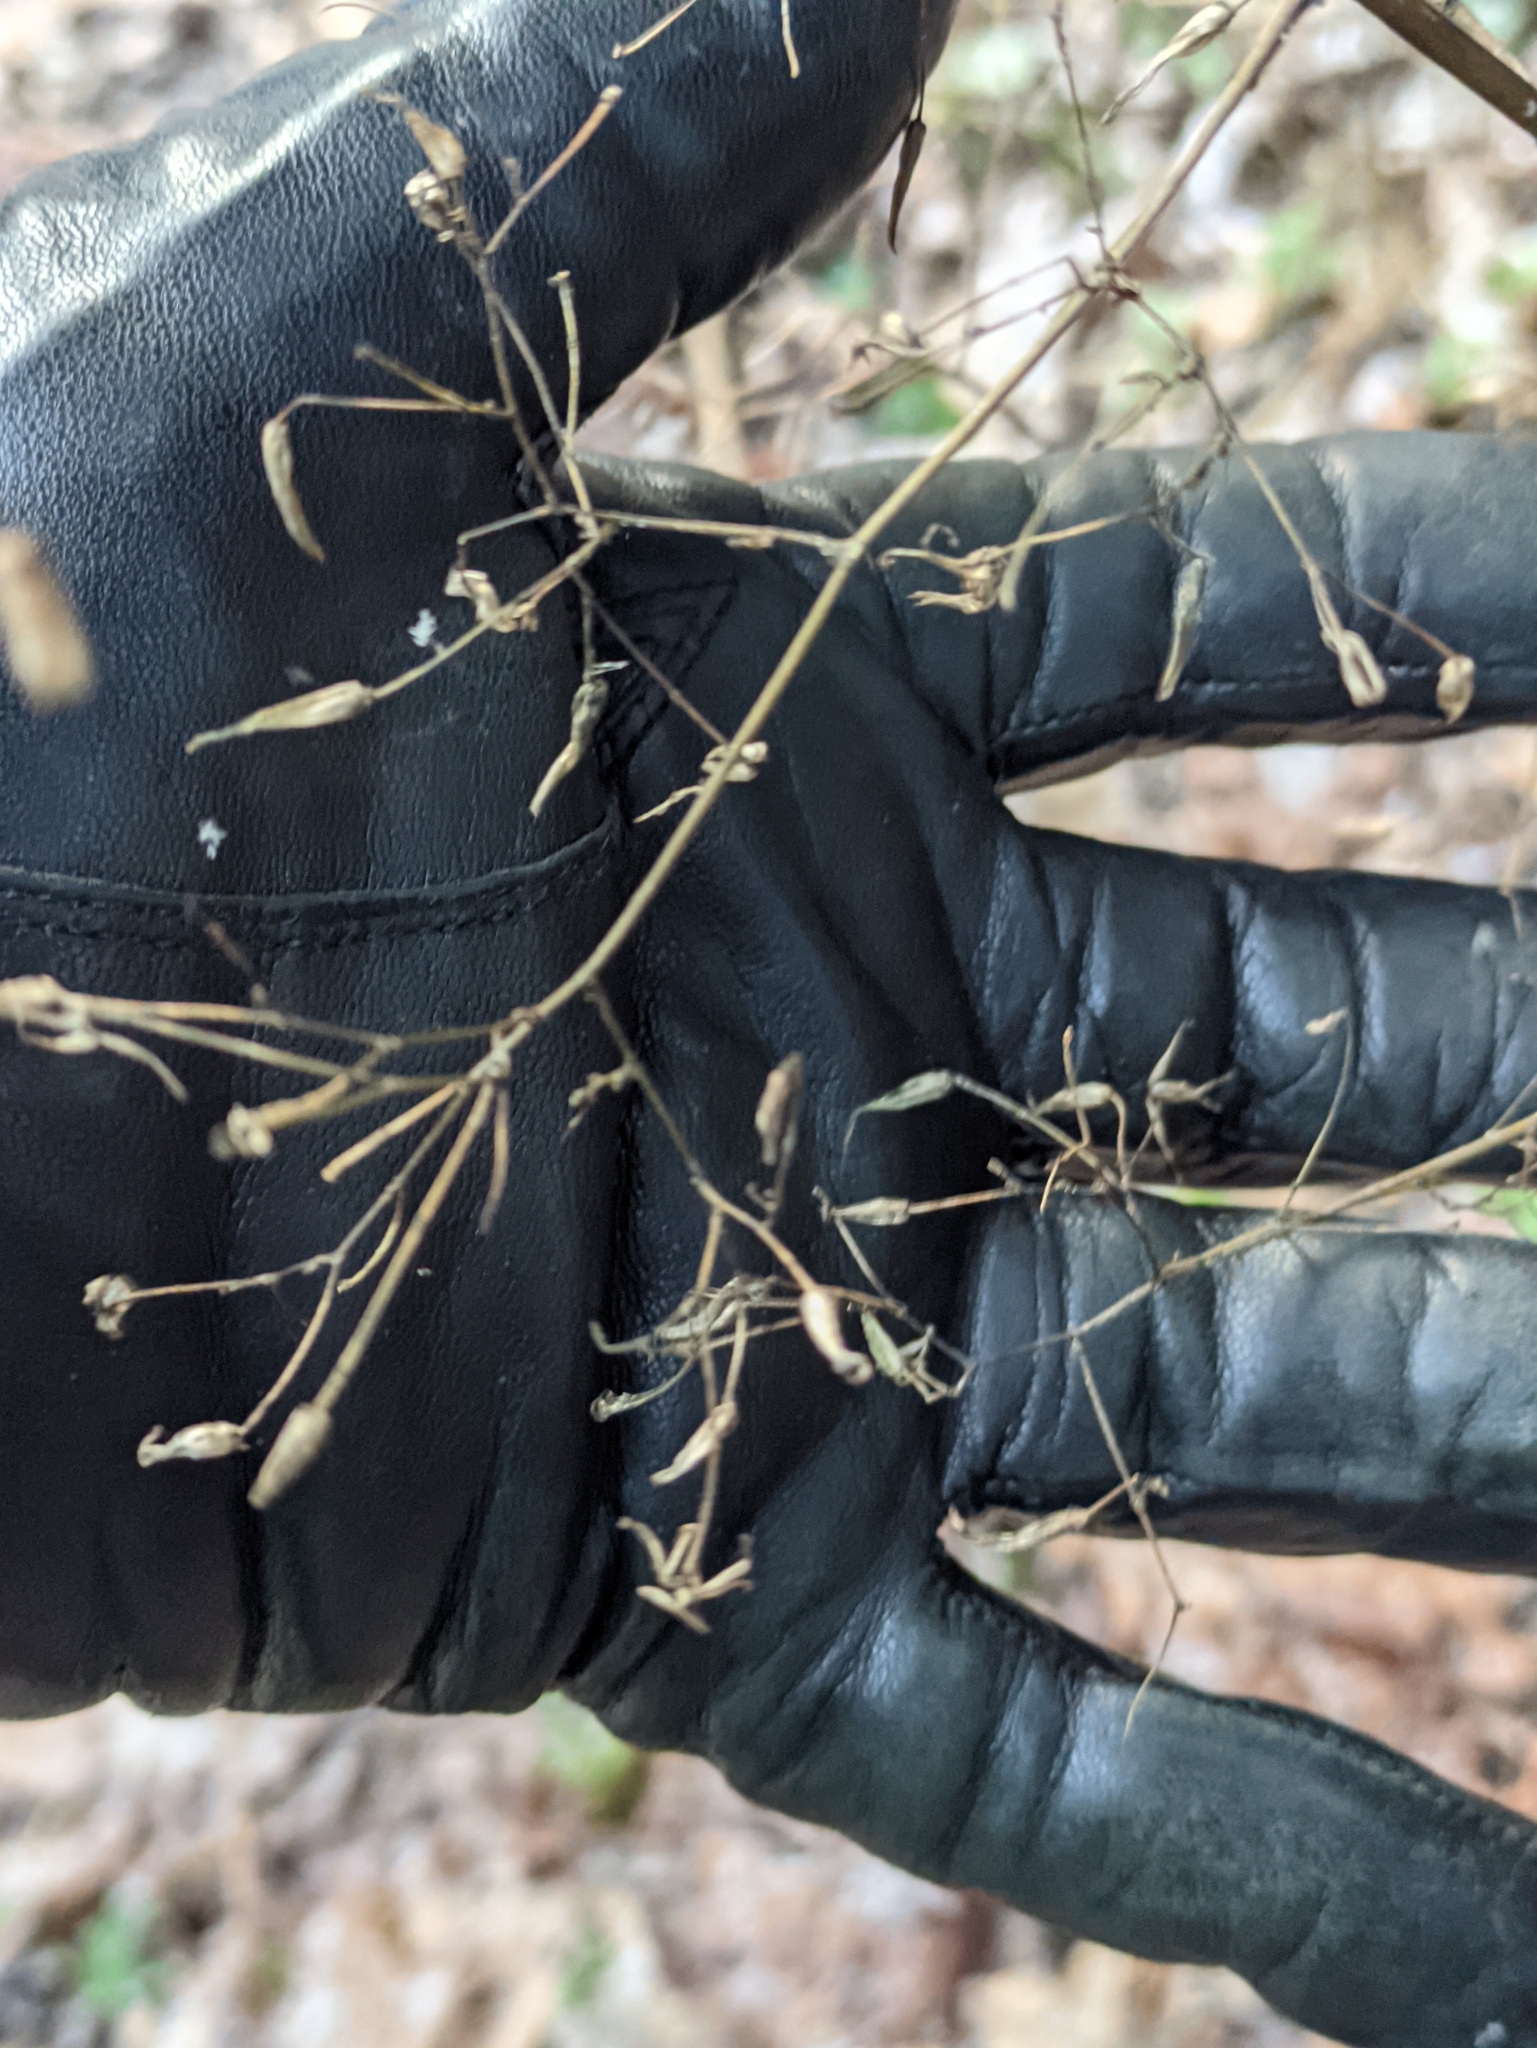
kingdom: Plantae
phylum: Tracheophyta
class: Magnoliopsida
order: Asterales
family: Asteraceae
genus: Mycelis
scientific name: Mycelis muralis
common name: Wall lettuce
